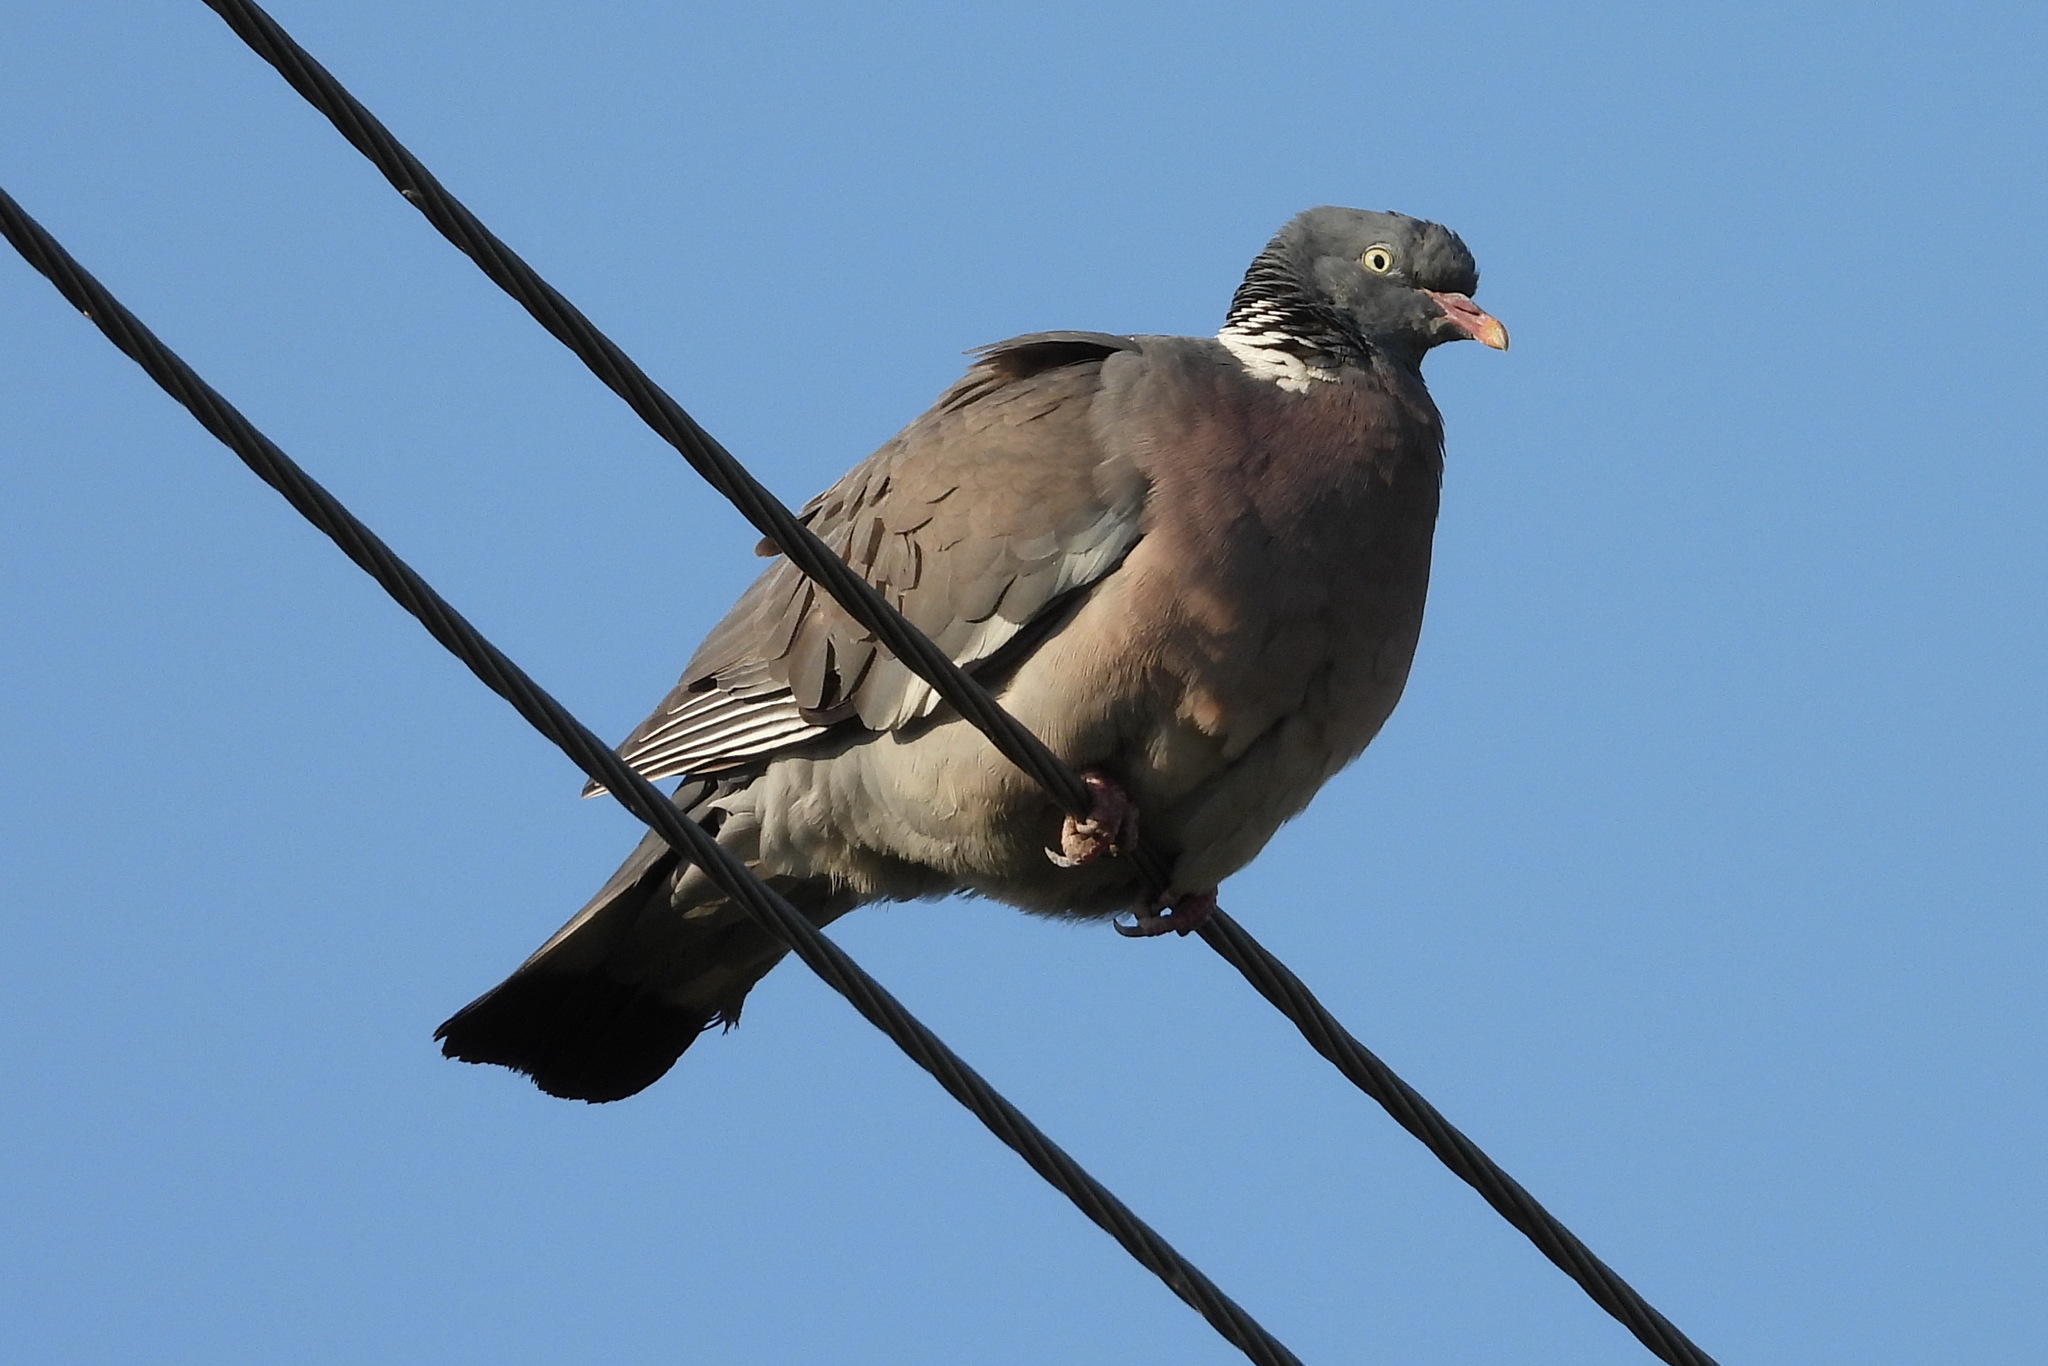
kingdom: Animalia
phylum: Chordata
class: Aves
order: Columbiformes
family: Columbidae
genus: Columba
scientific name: Columba palumbus
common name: Common wood pigeon
